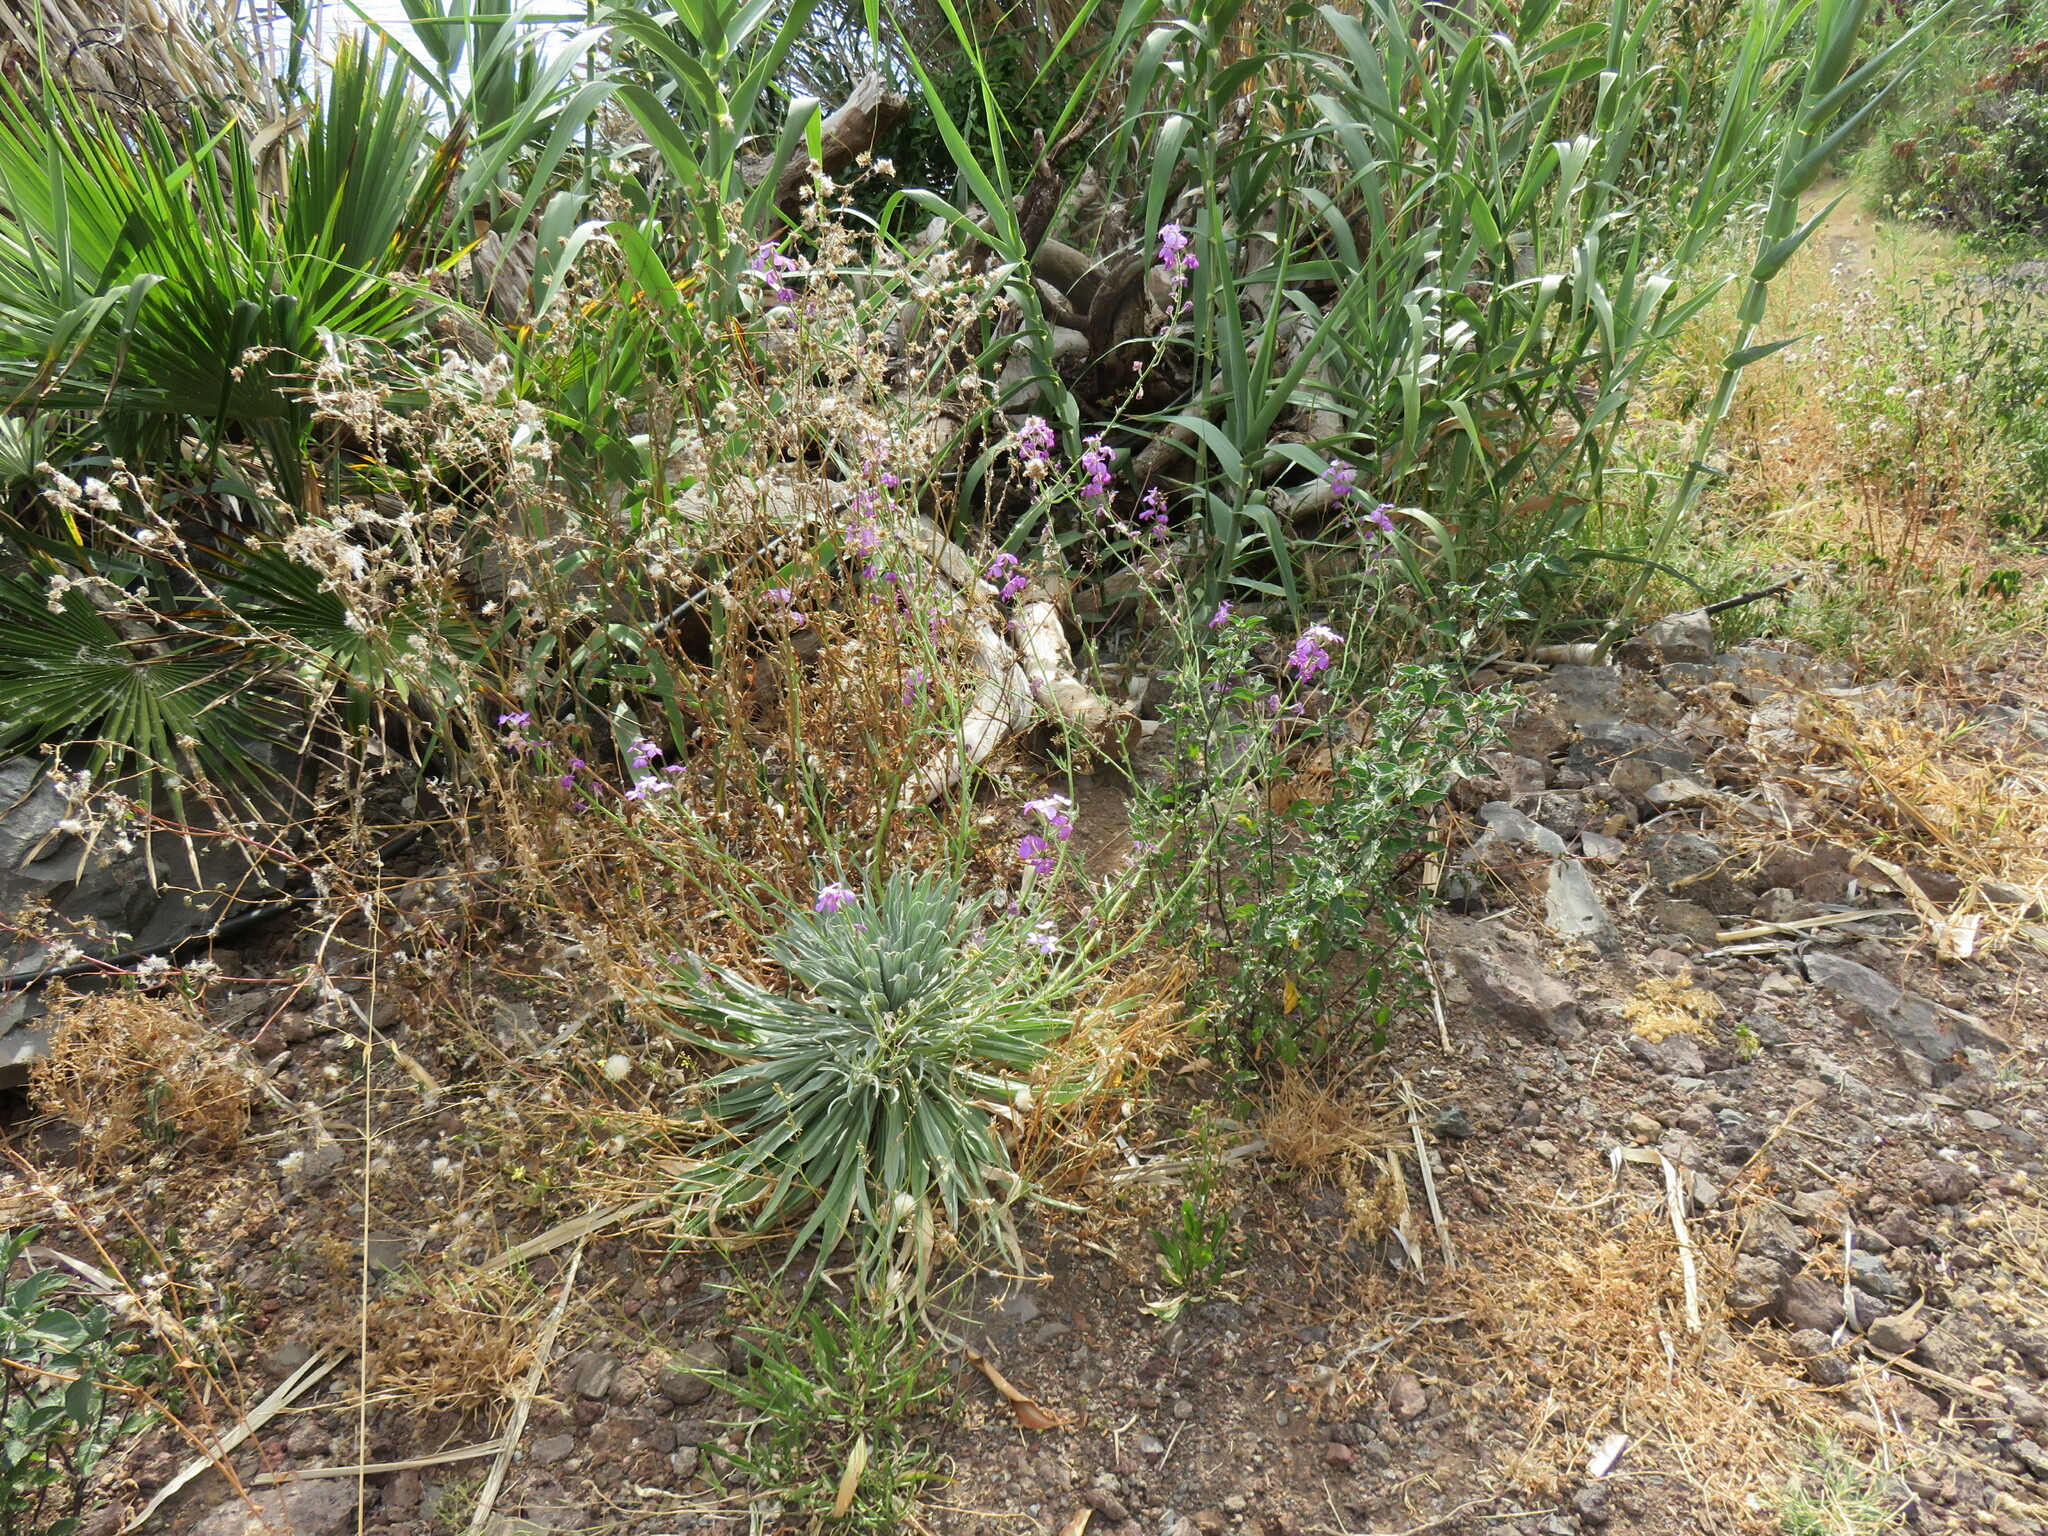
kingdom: Plantae
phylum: Tracheophyta
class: Magnoliopsida
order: Brassicales
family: Brassicaceae
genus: Matthiola
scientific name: Matthiola maderensis
